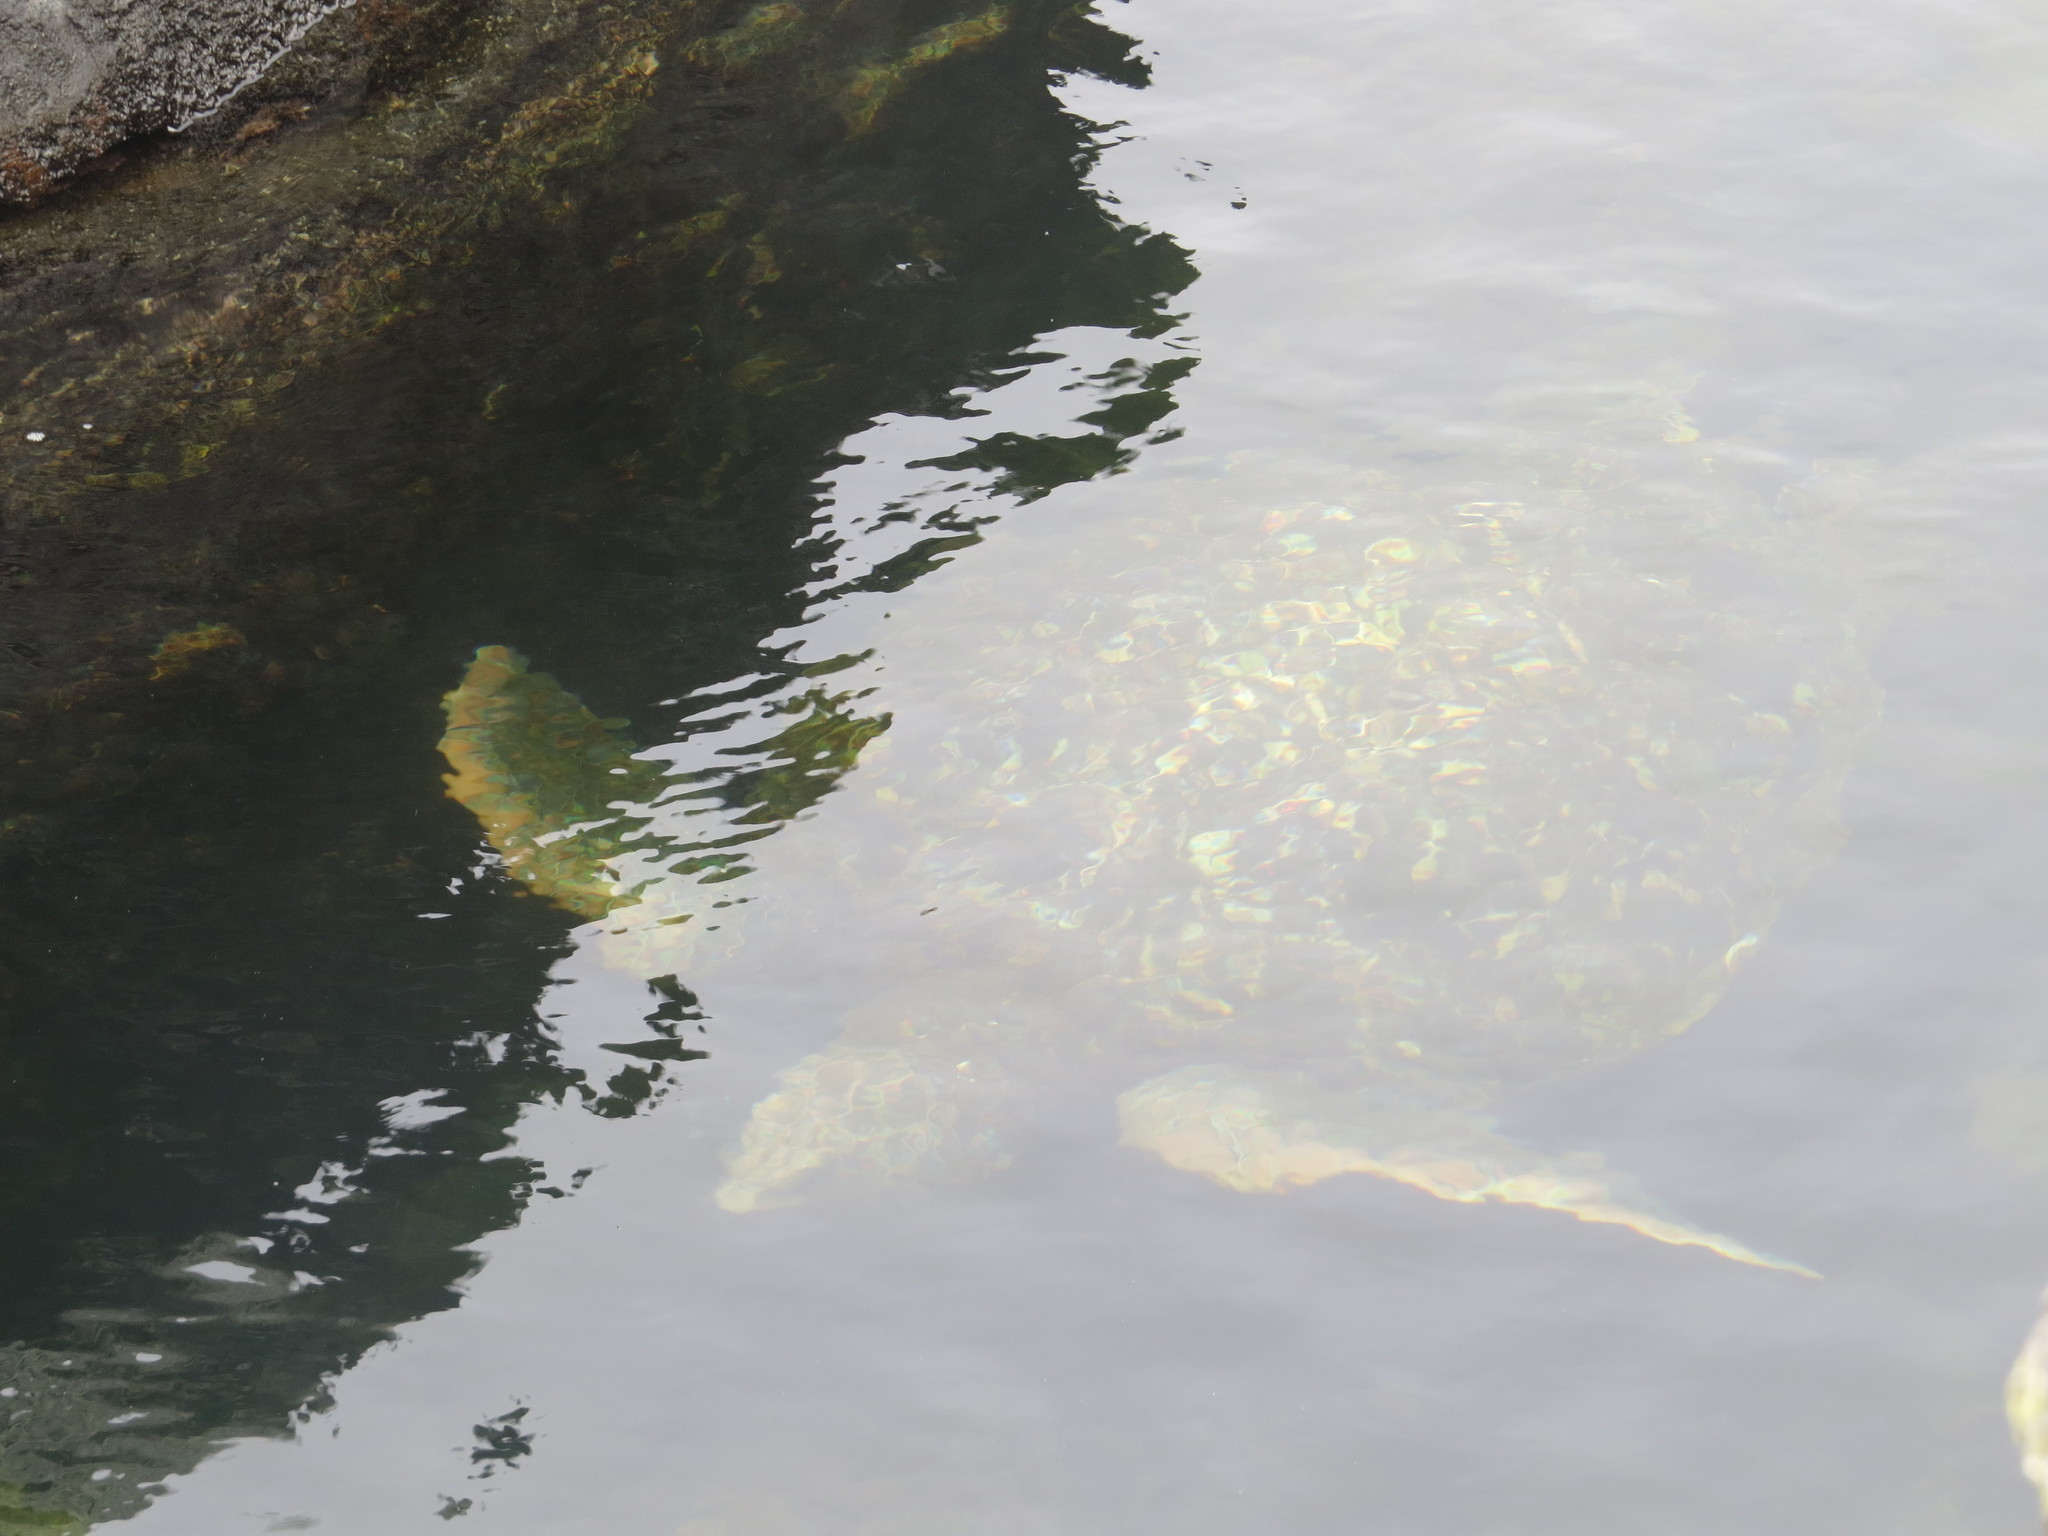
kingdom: Animalia
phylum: Chordata
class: Testudines
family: Cheloniidae
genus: Chelonia
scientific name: Chelonia mydas
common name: Green turtle
